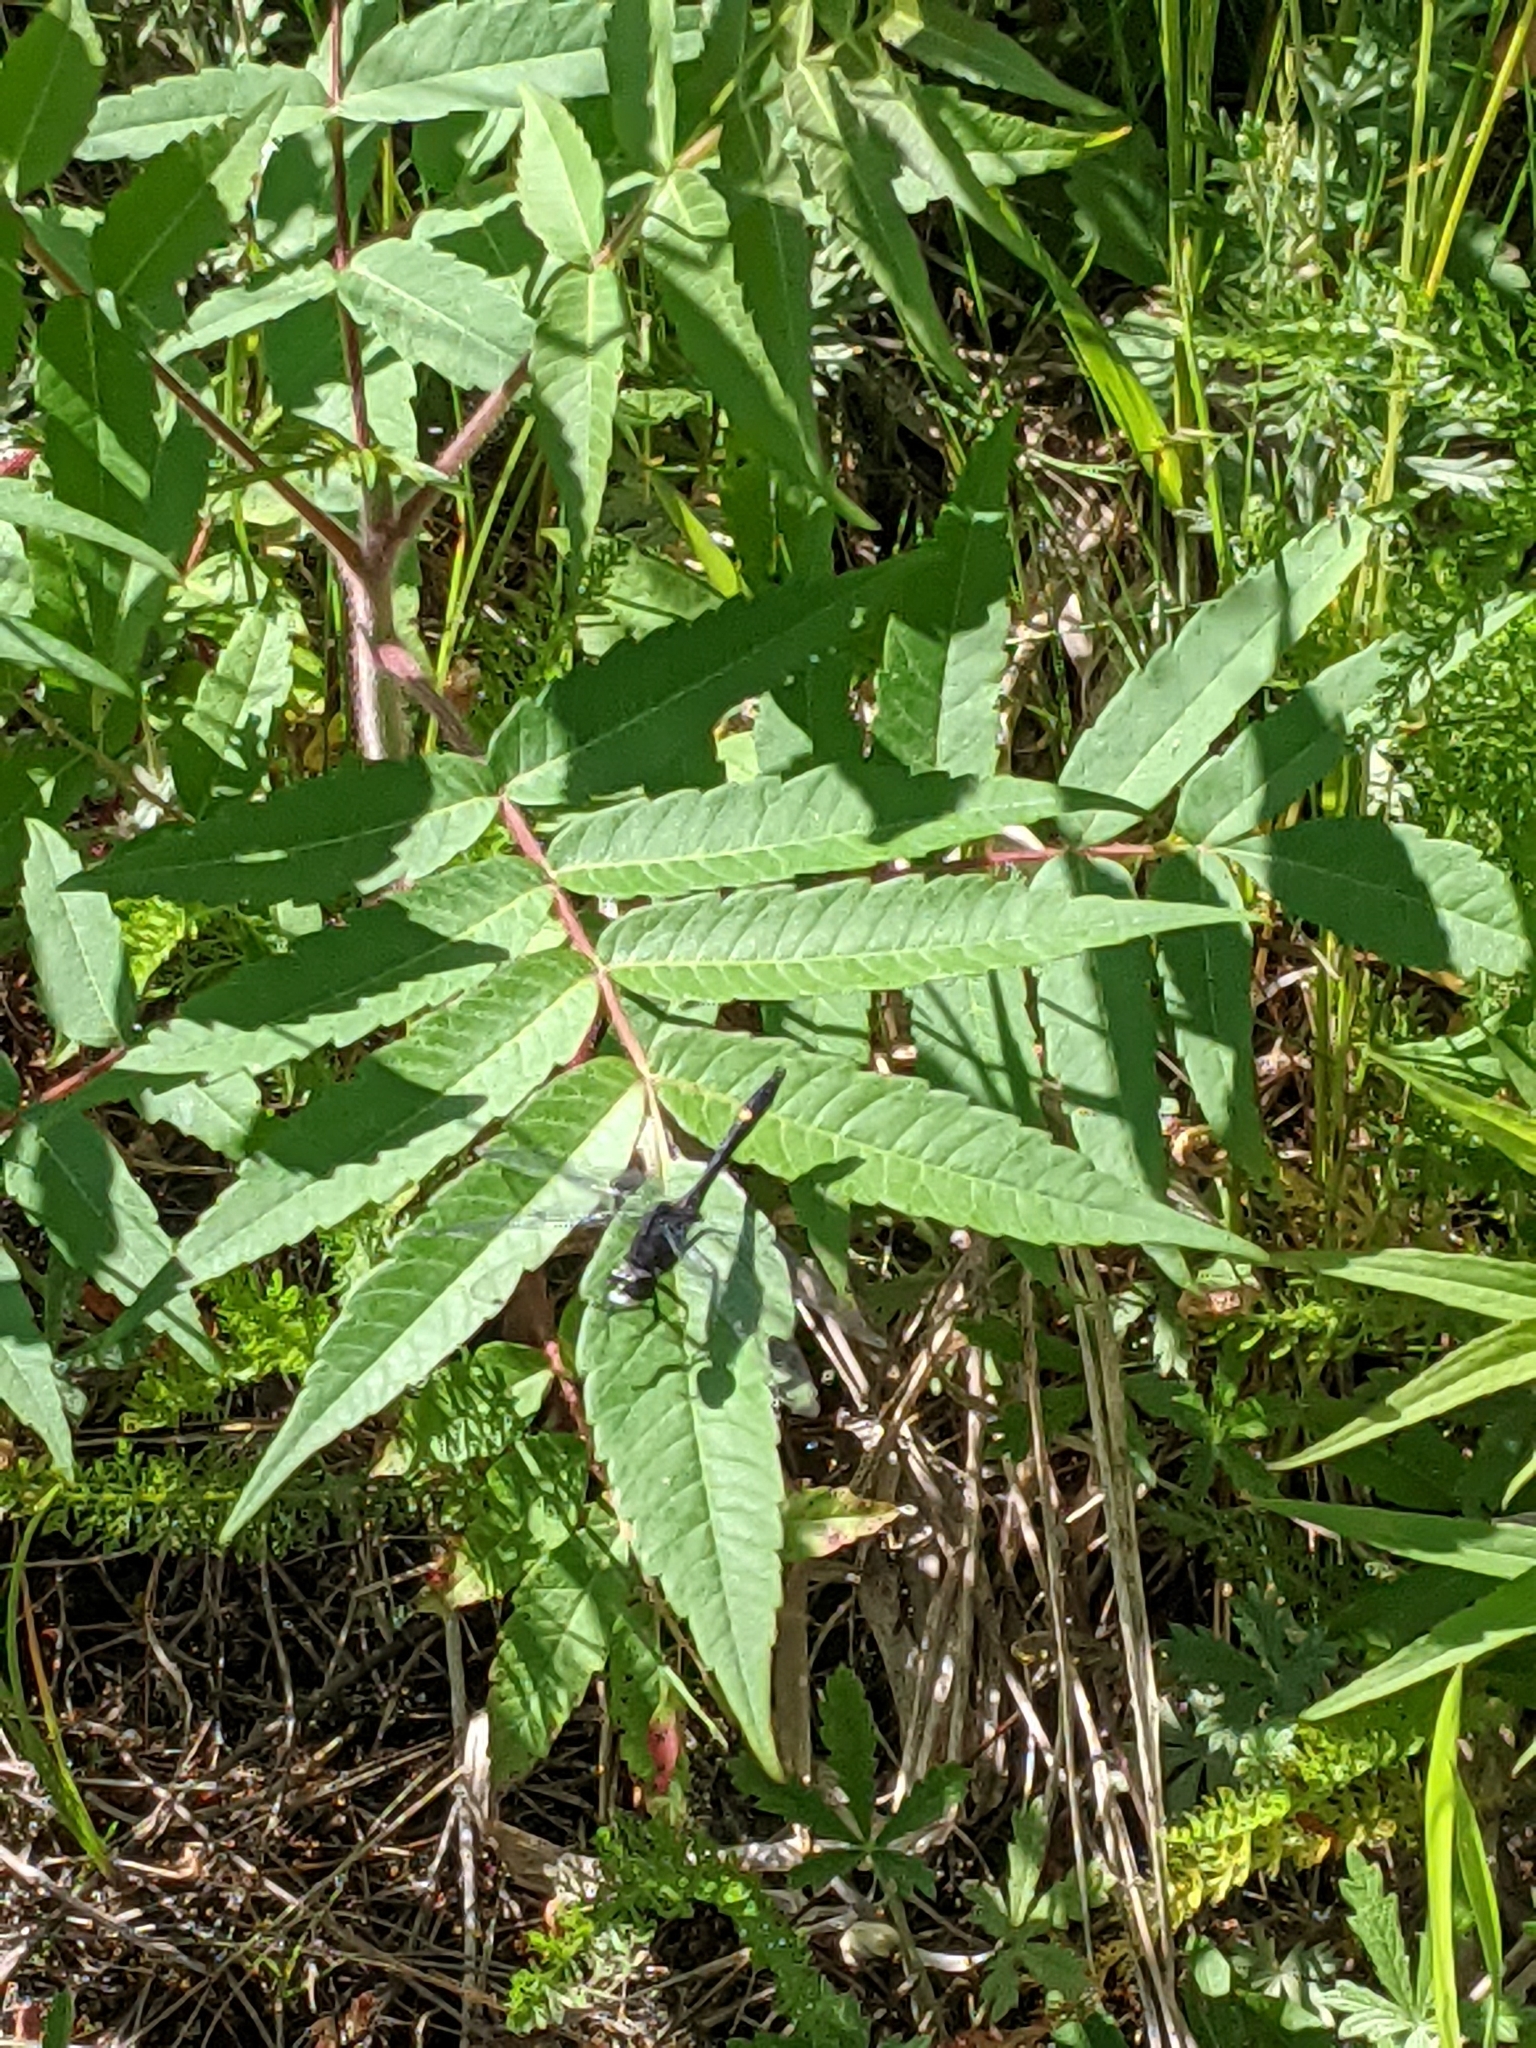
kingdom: Animalia
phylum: Arthropoda
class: Insecta
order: Odonata
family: Libellulidae
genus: Leucorrhinia
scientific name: Leucorrhinia intacta
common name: Dot-tailed whiteface
